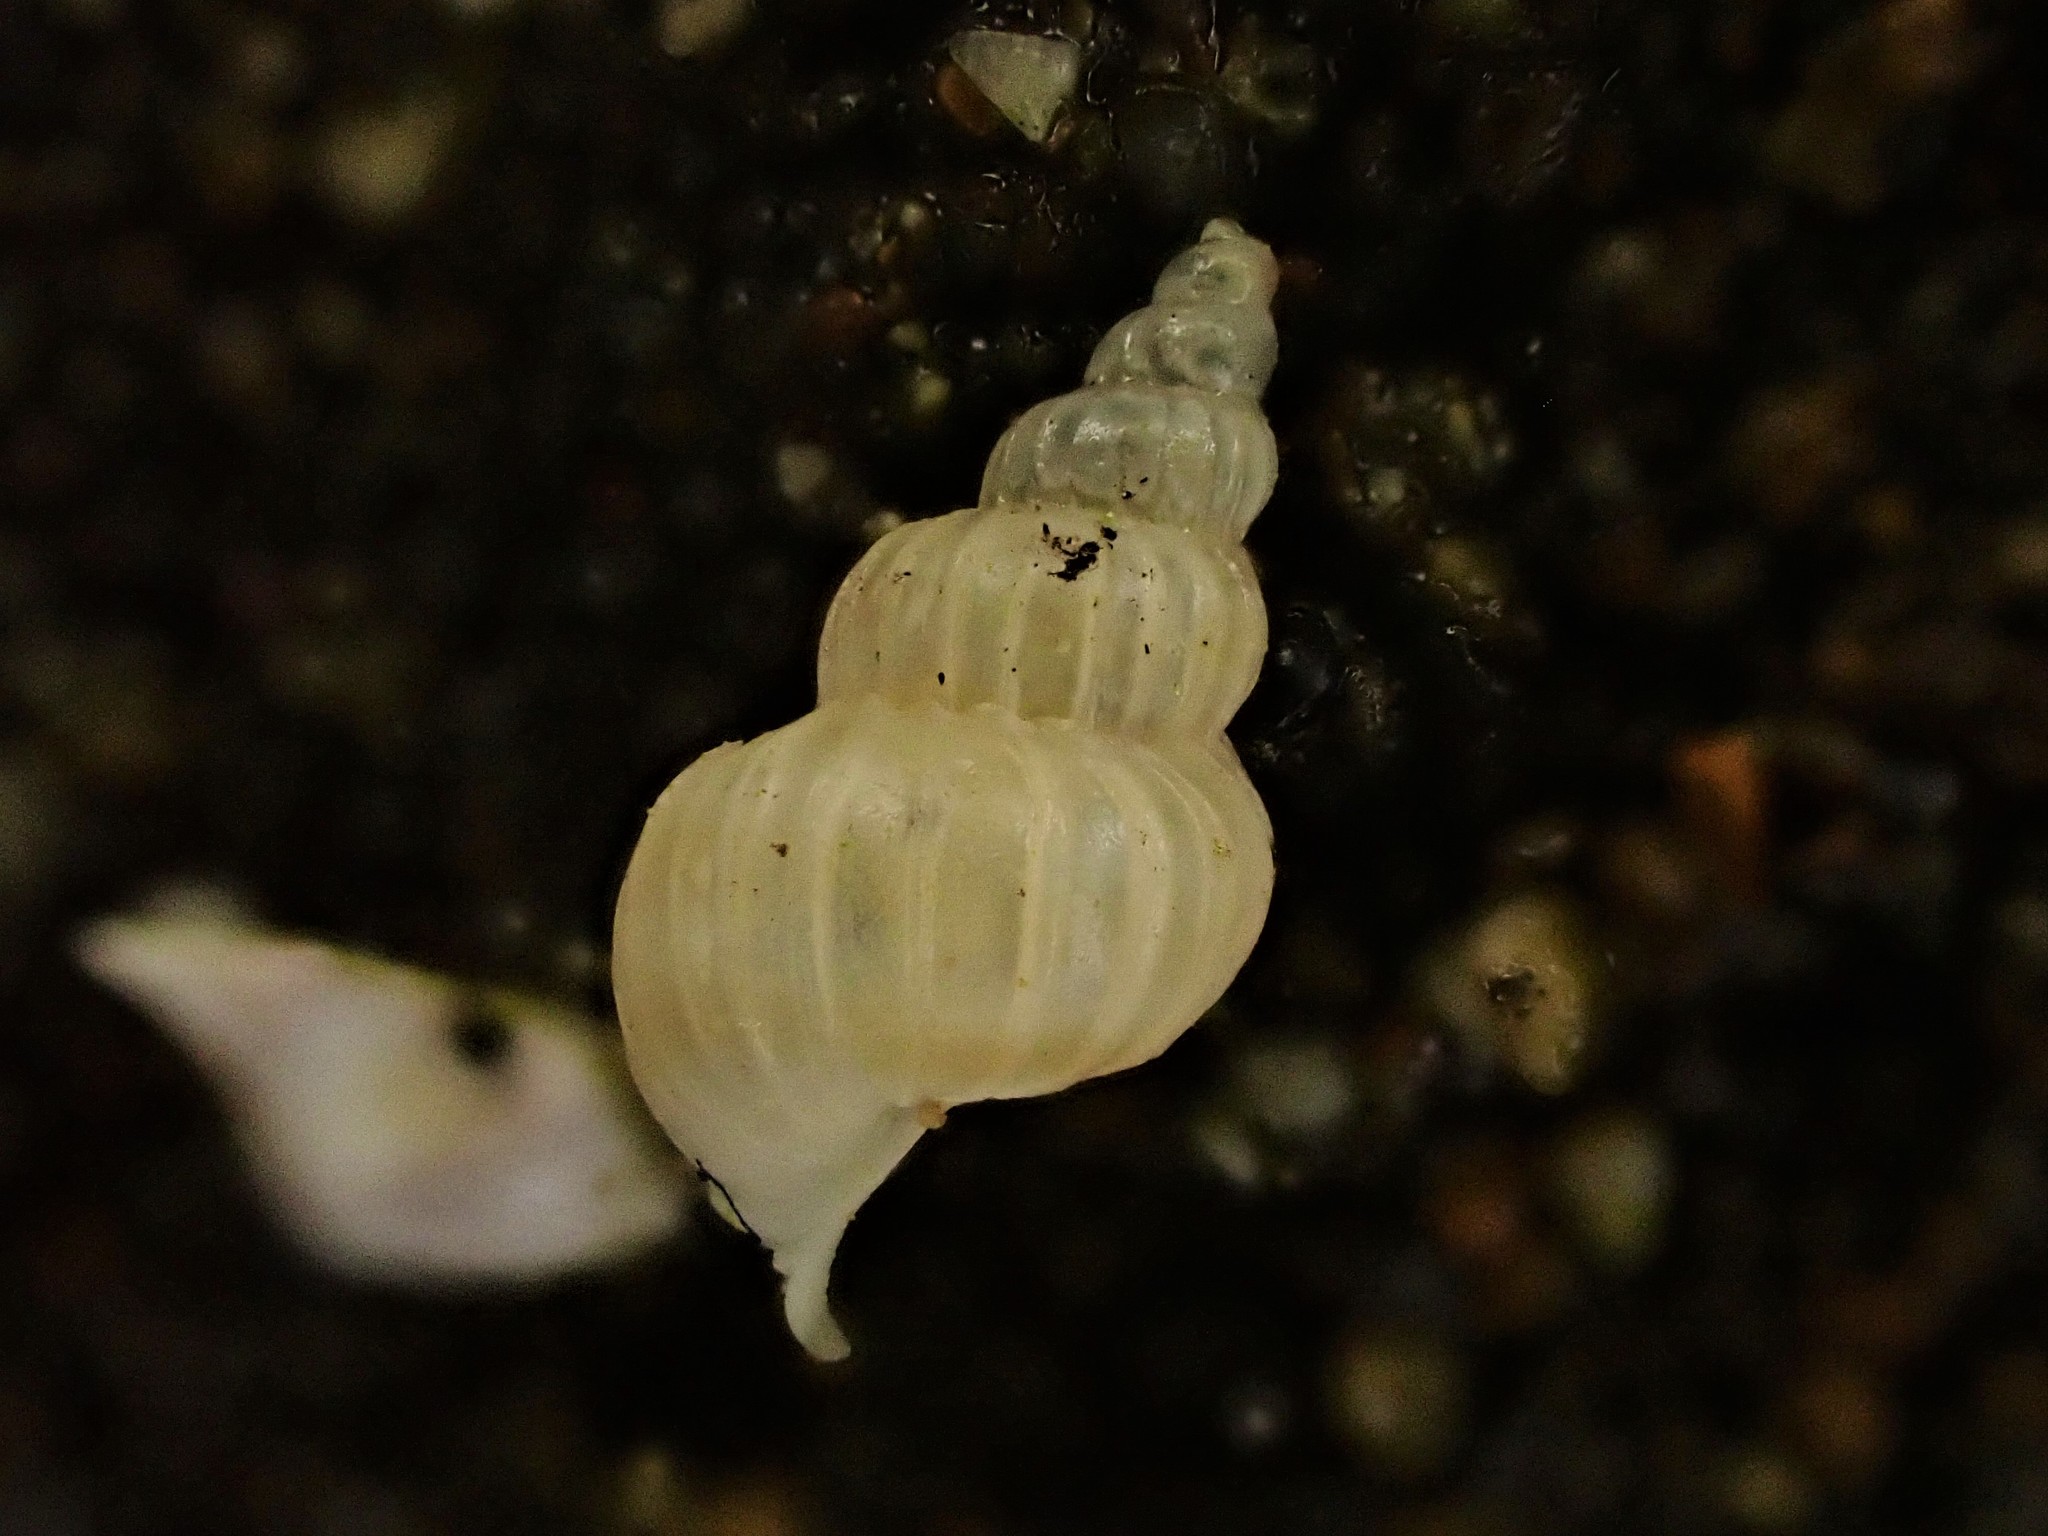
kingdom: Animalia
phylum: Mollusca
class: Gastropoda
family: Epitoniidae
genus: Epitonium
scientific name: Epitonium tenellum
